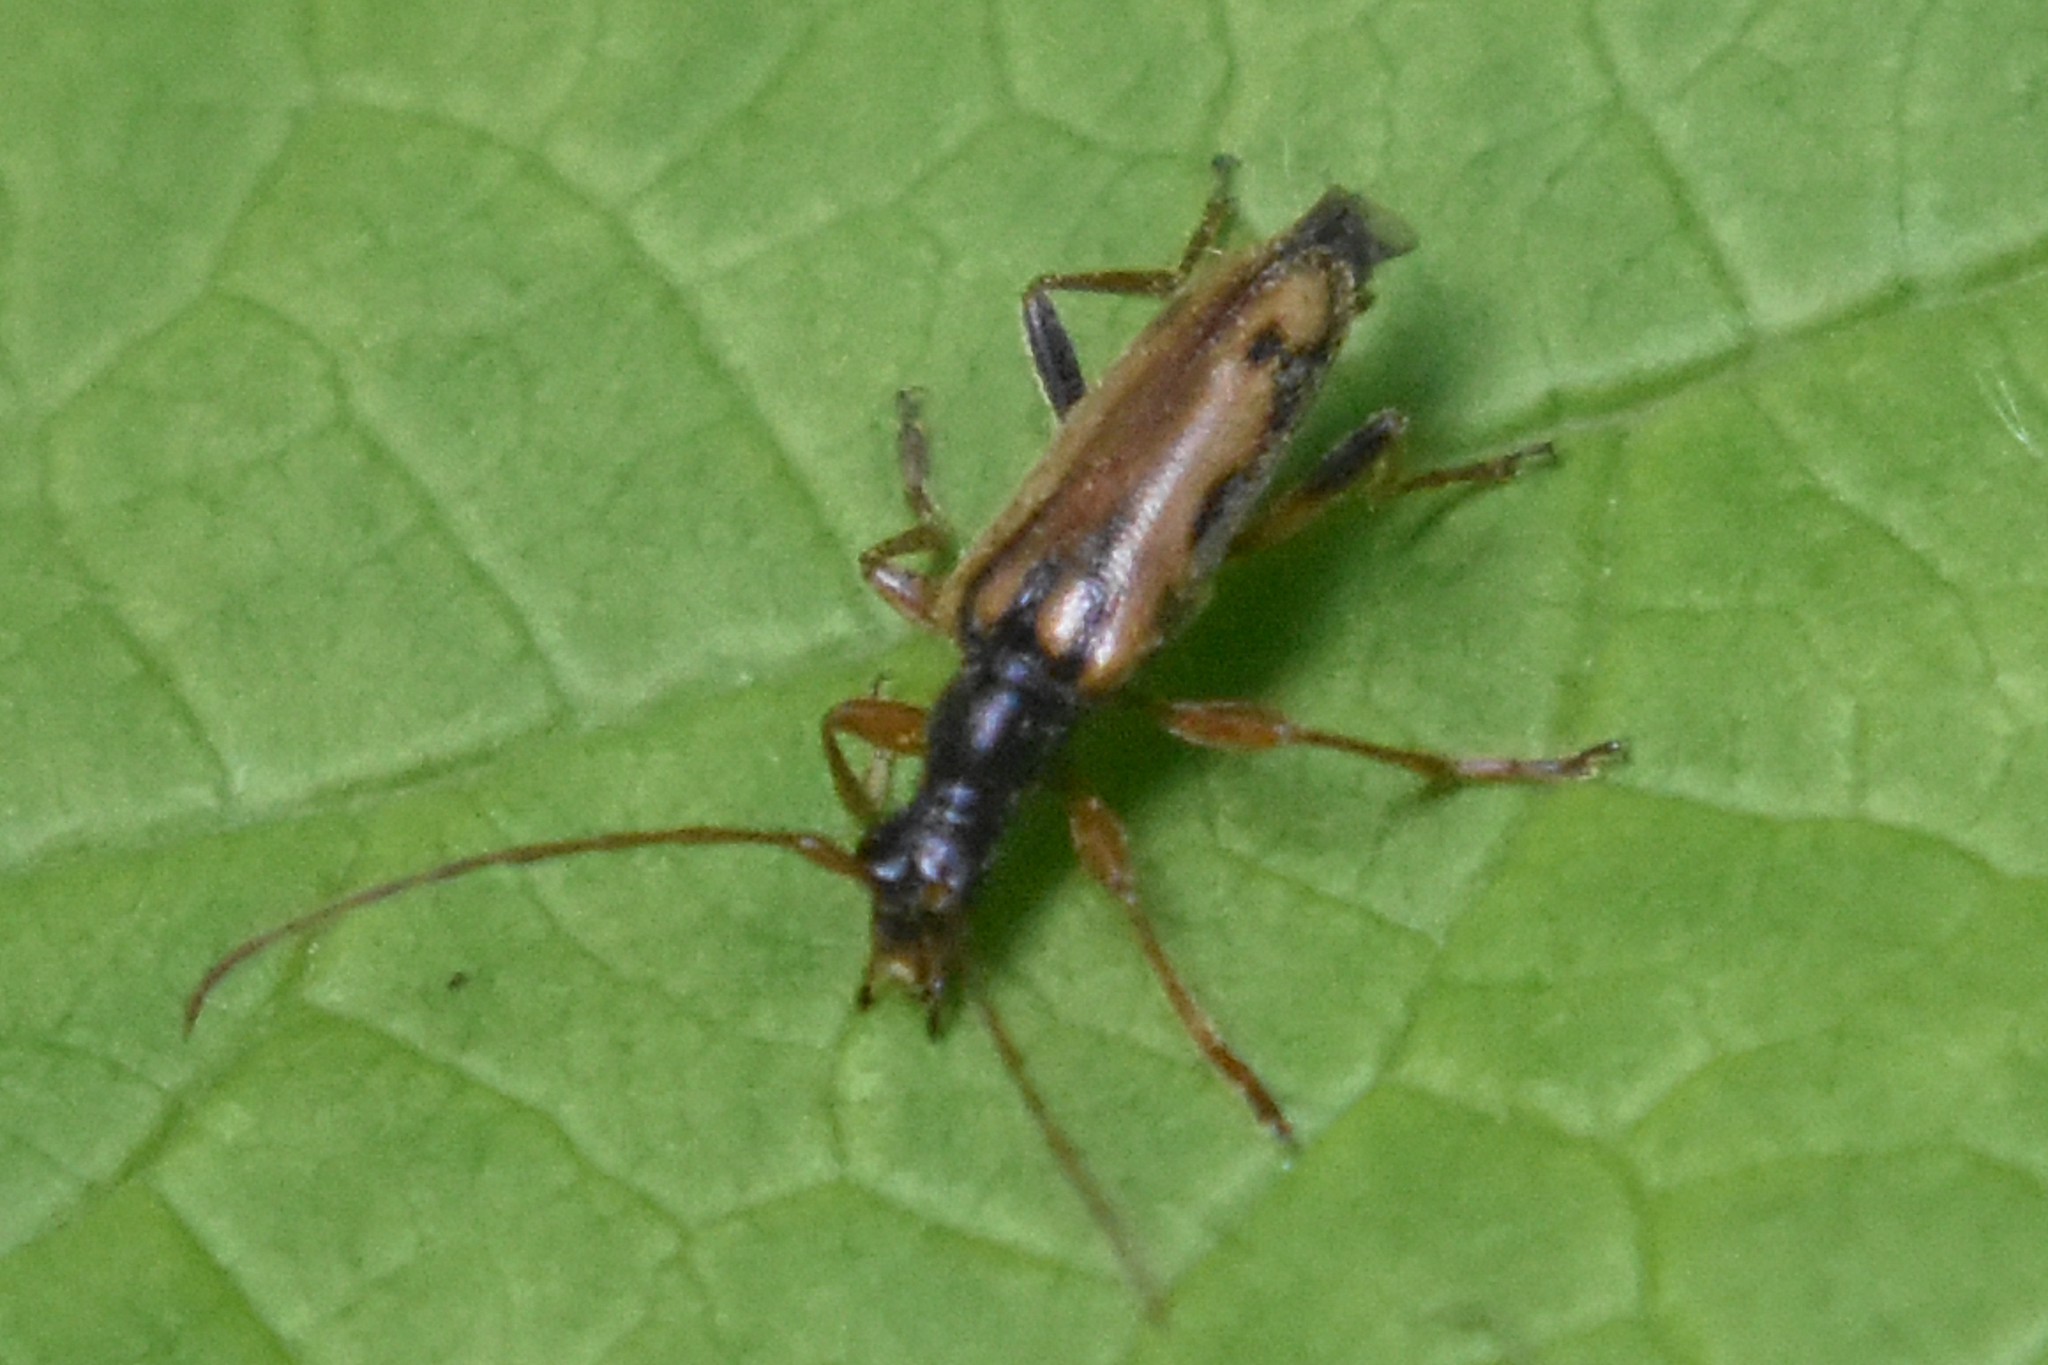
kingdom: Animalia
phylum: Arthropoda
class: Insecta
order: Coleoptera
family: Cerambycidae
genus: Pidonia
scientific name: Pidonia scripta
